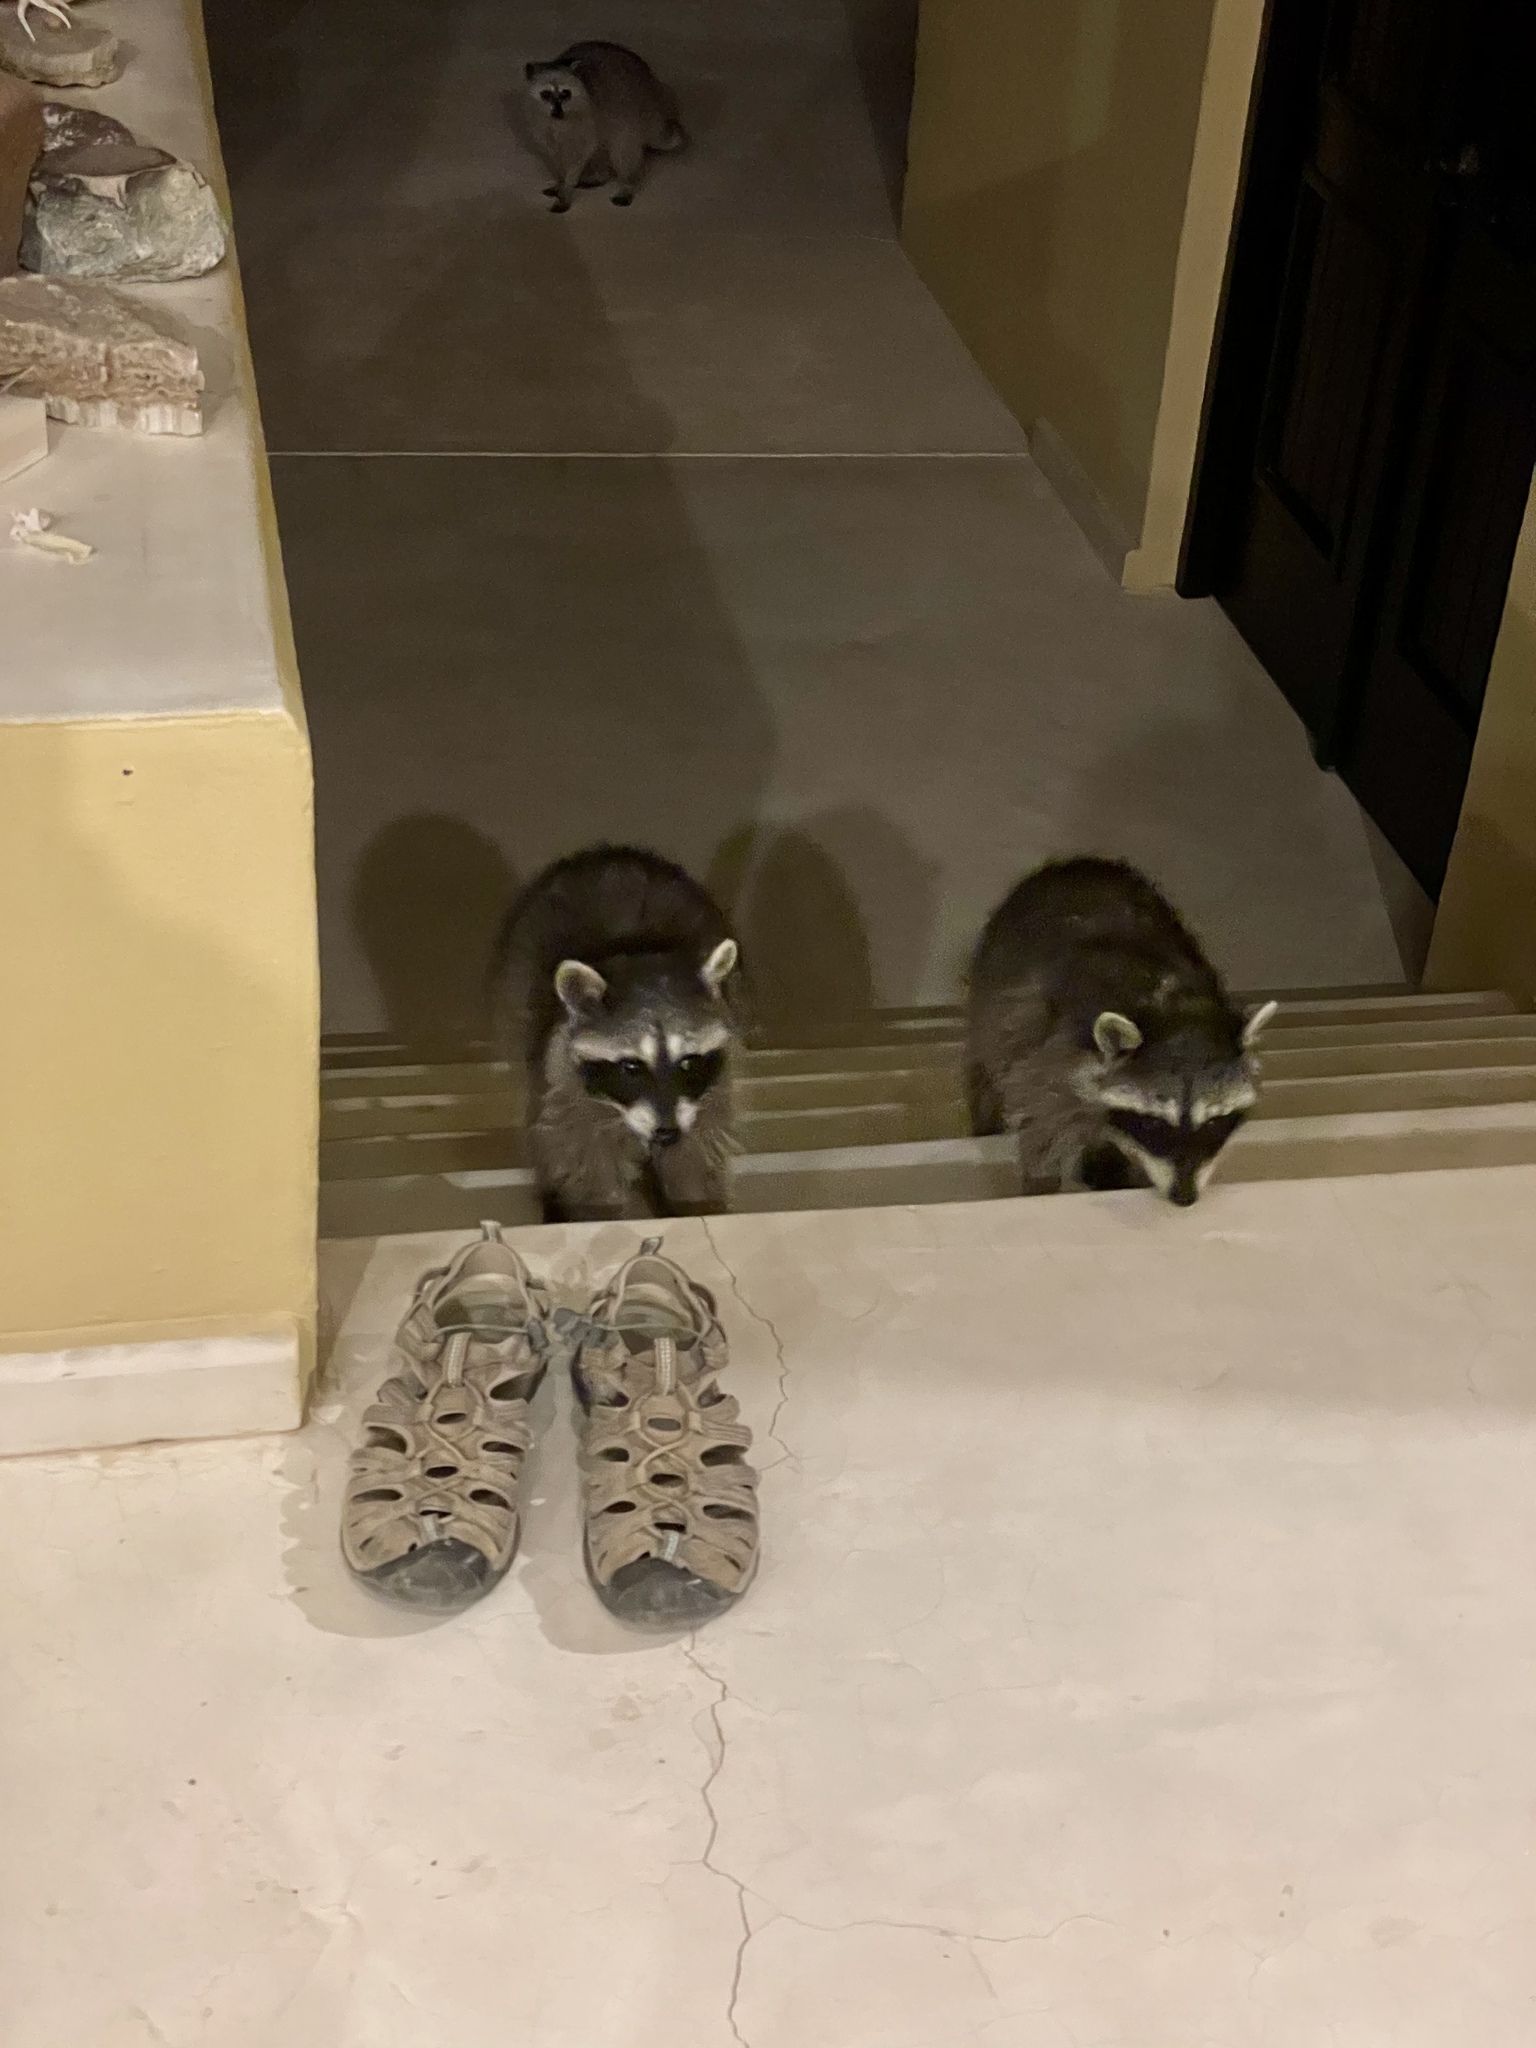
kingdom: Animalia
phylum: Chordata
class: Mammalia
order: Carnivora
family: Procyonidae
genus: Procyon
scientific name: Procyon lotor
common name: Raccoon
